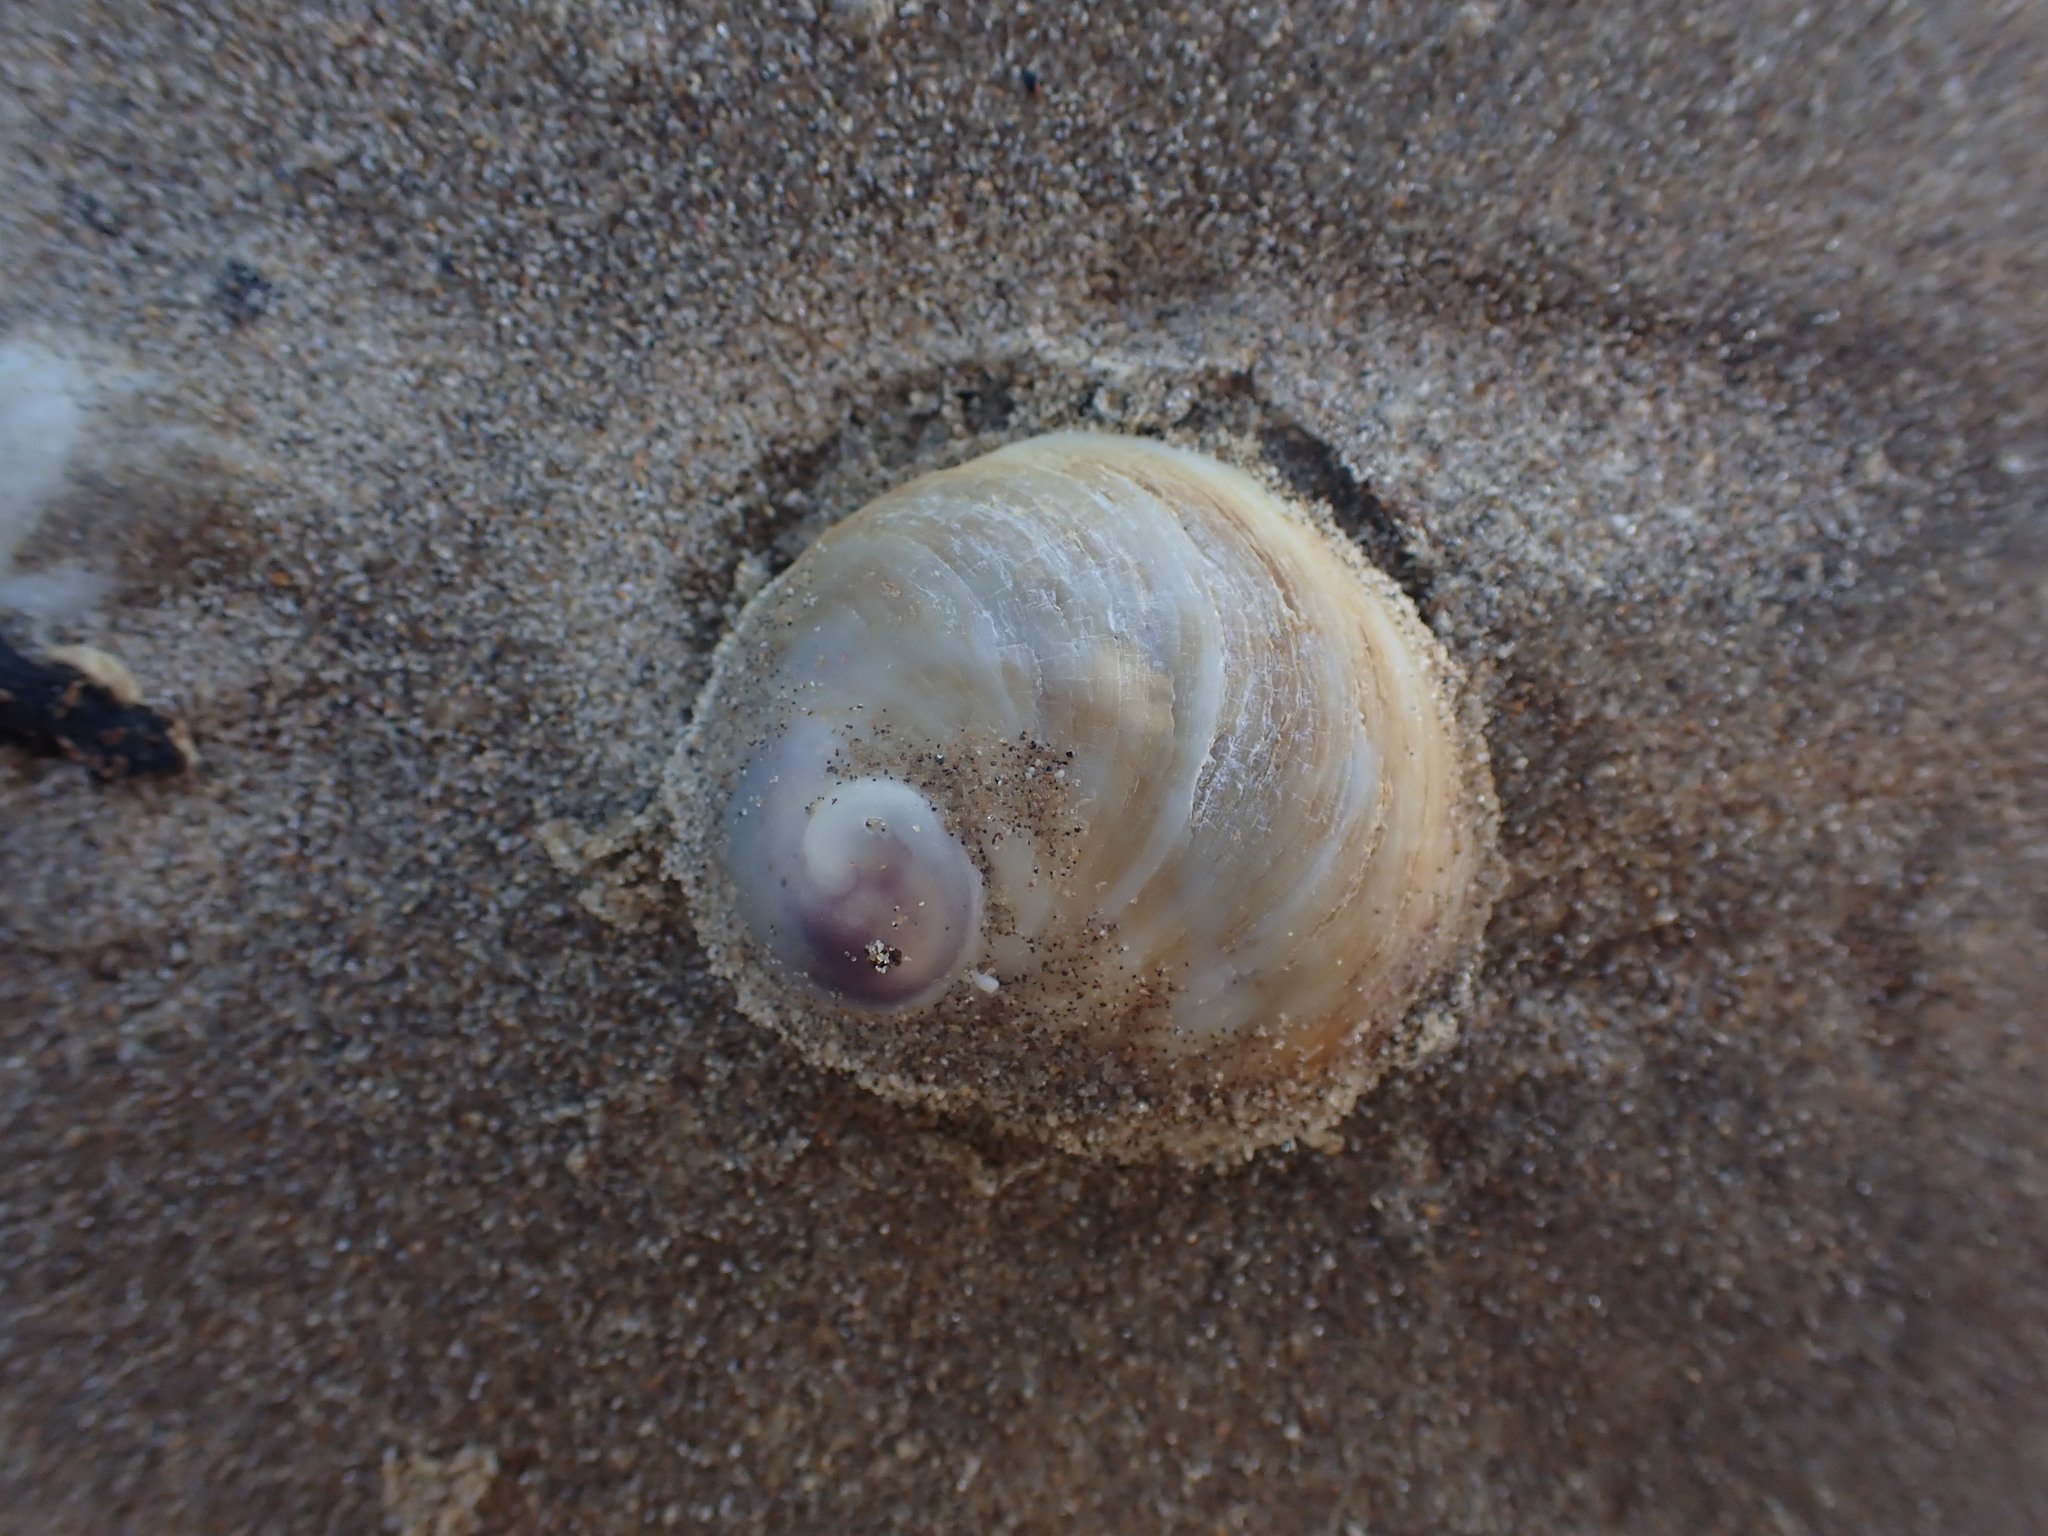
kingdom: Animalia
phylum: Mollusca
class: Gastropoda
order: Littorinimorpha
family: Calyptraeidae
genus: Sigapatella
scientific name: Sigapatella novaezelandiae
